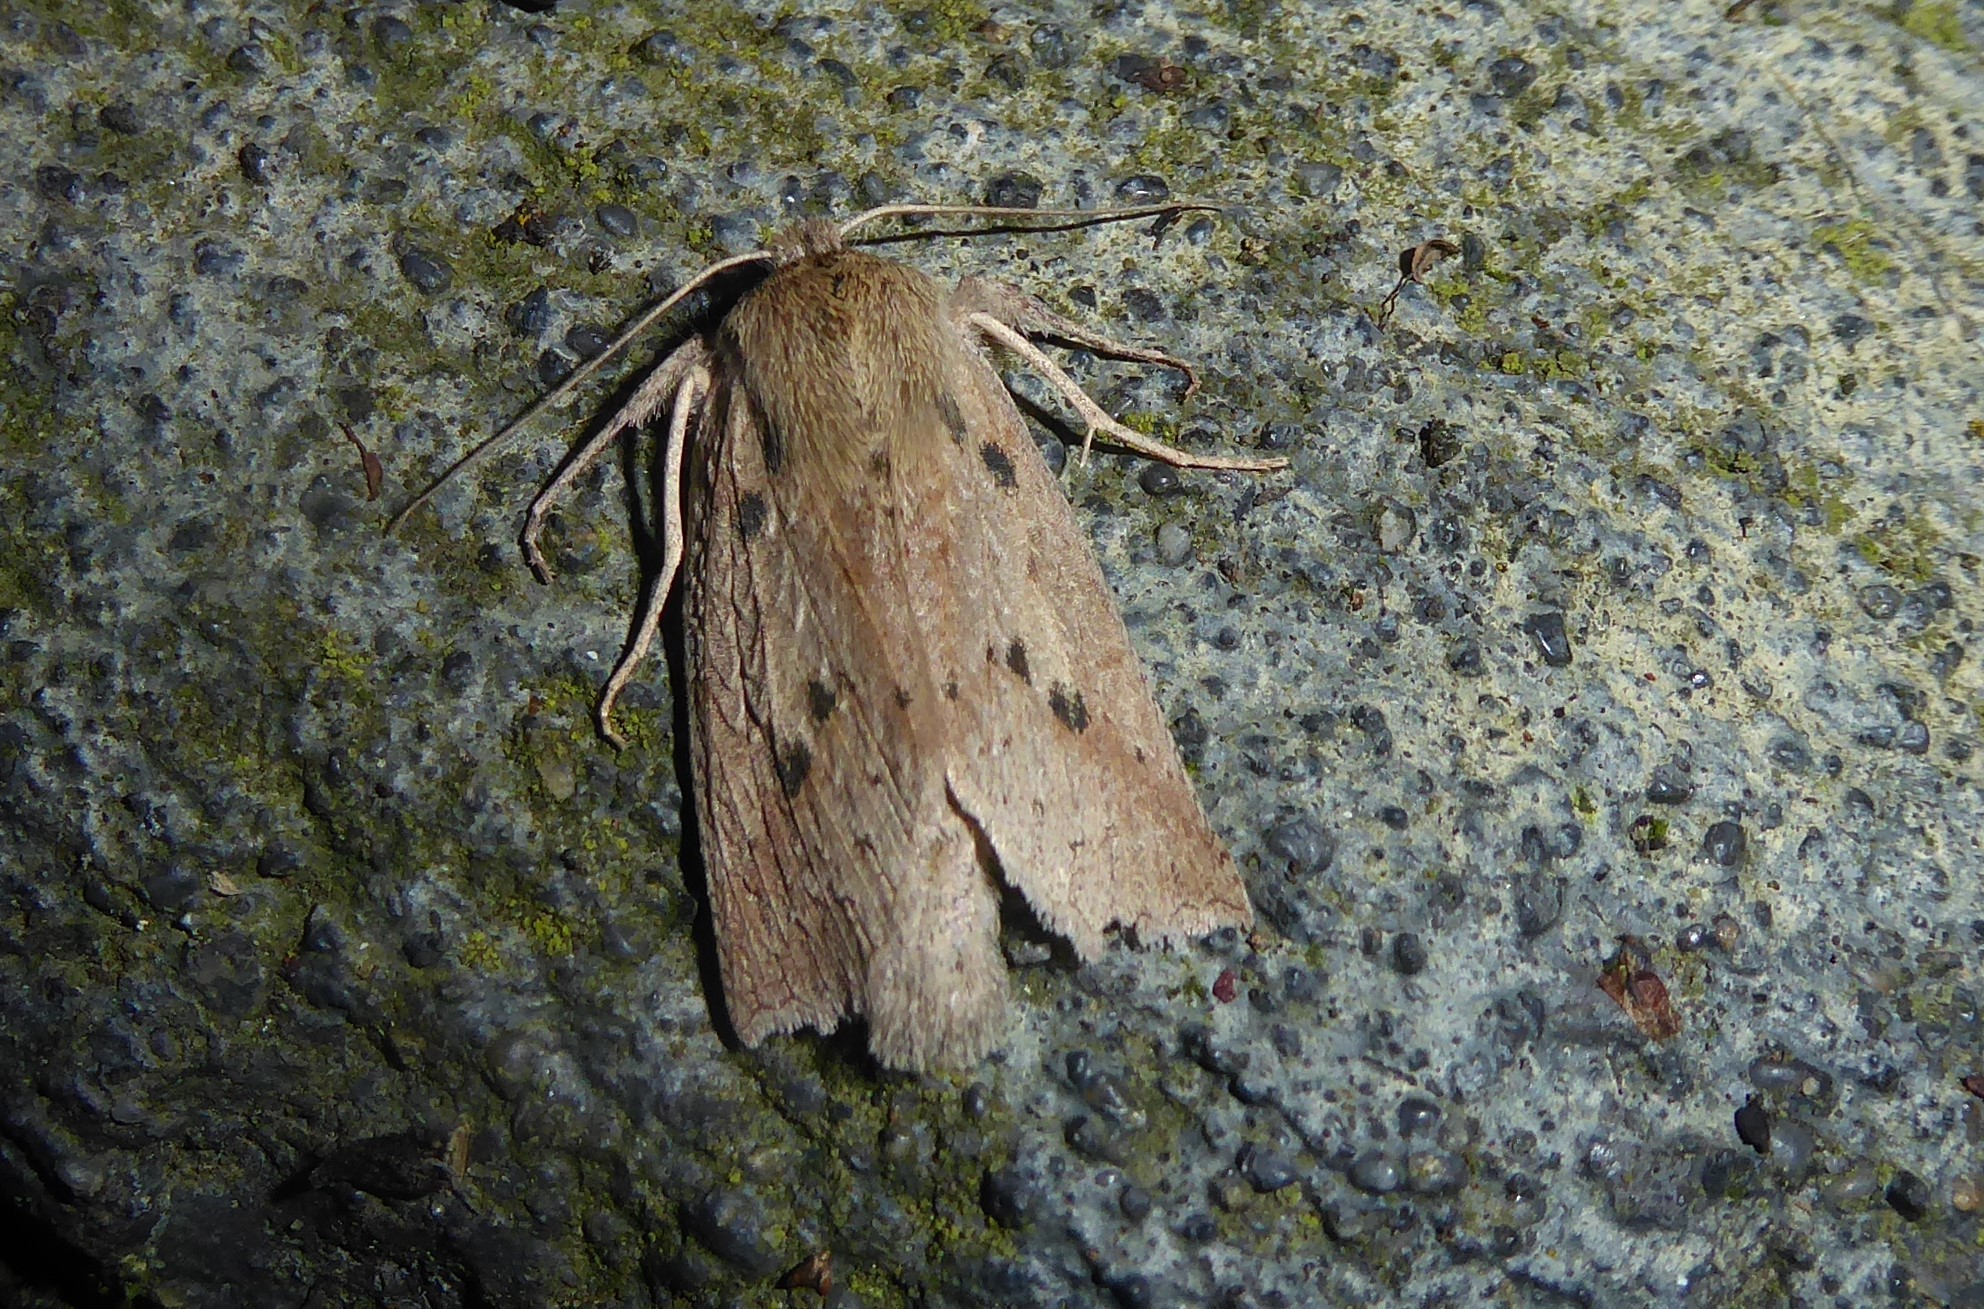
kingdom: Animalia
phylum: Arthropoda
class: Insecta
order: Lepidoptera
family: Geometridae
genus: Declana
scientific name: Declana leptomera
